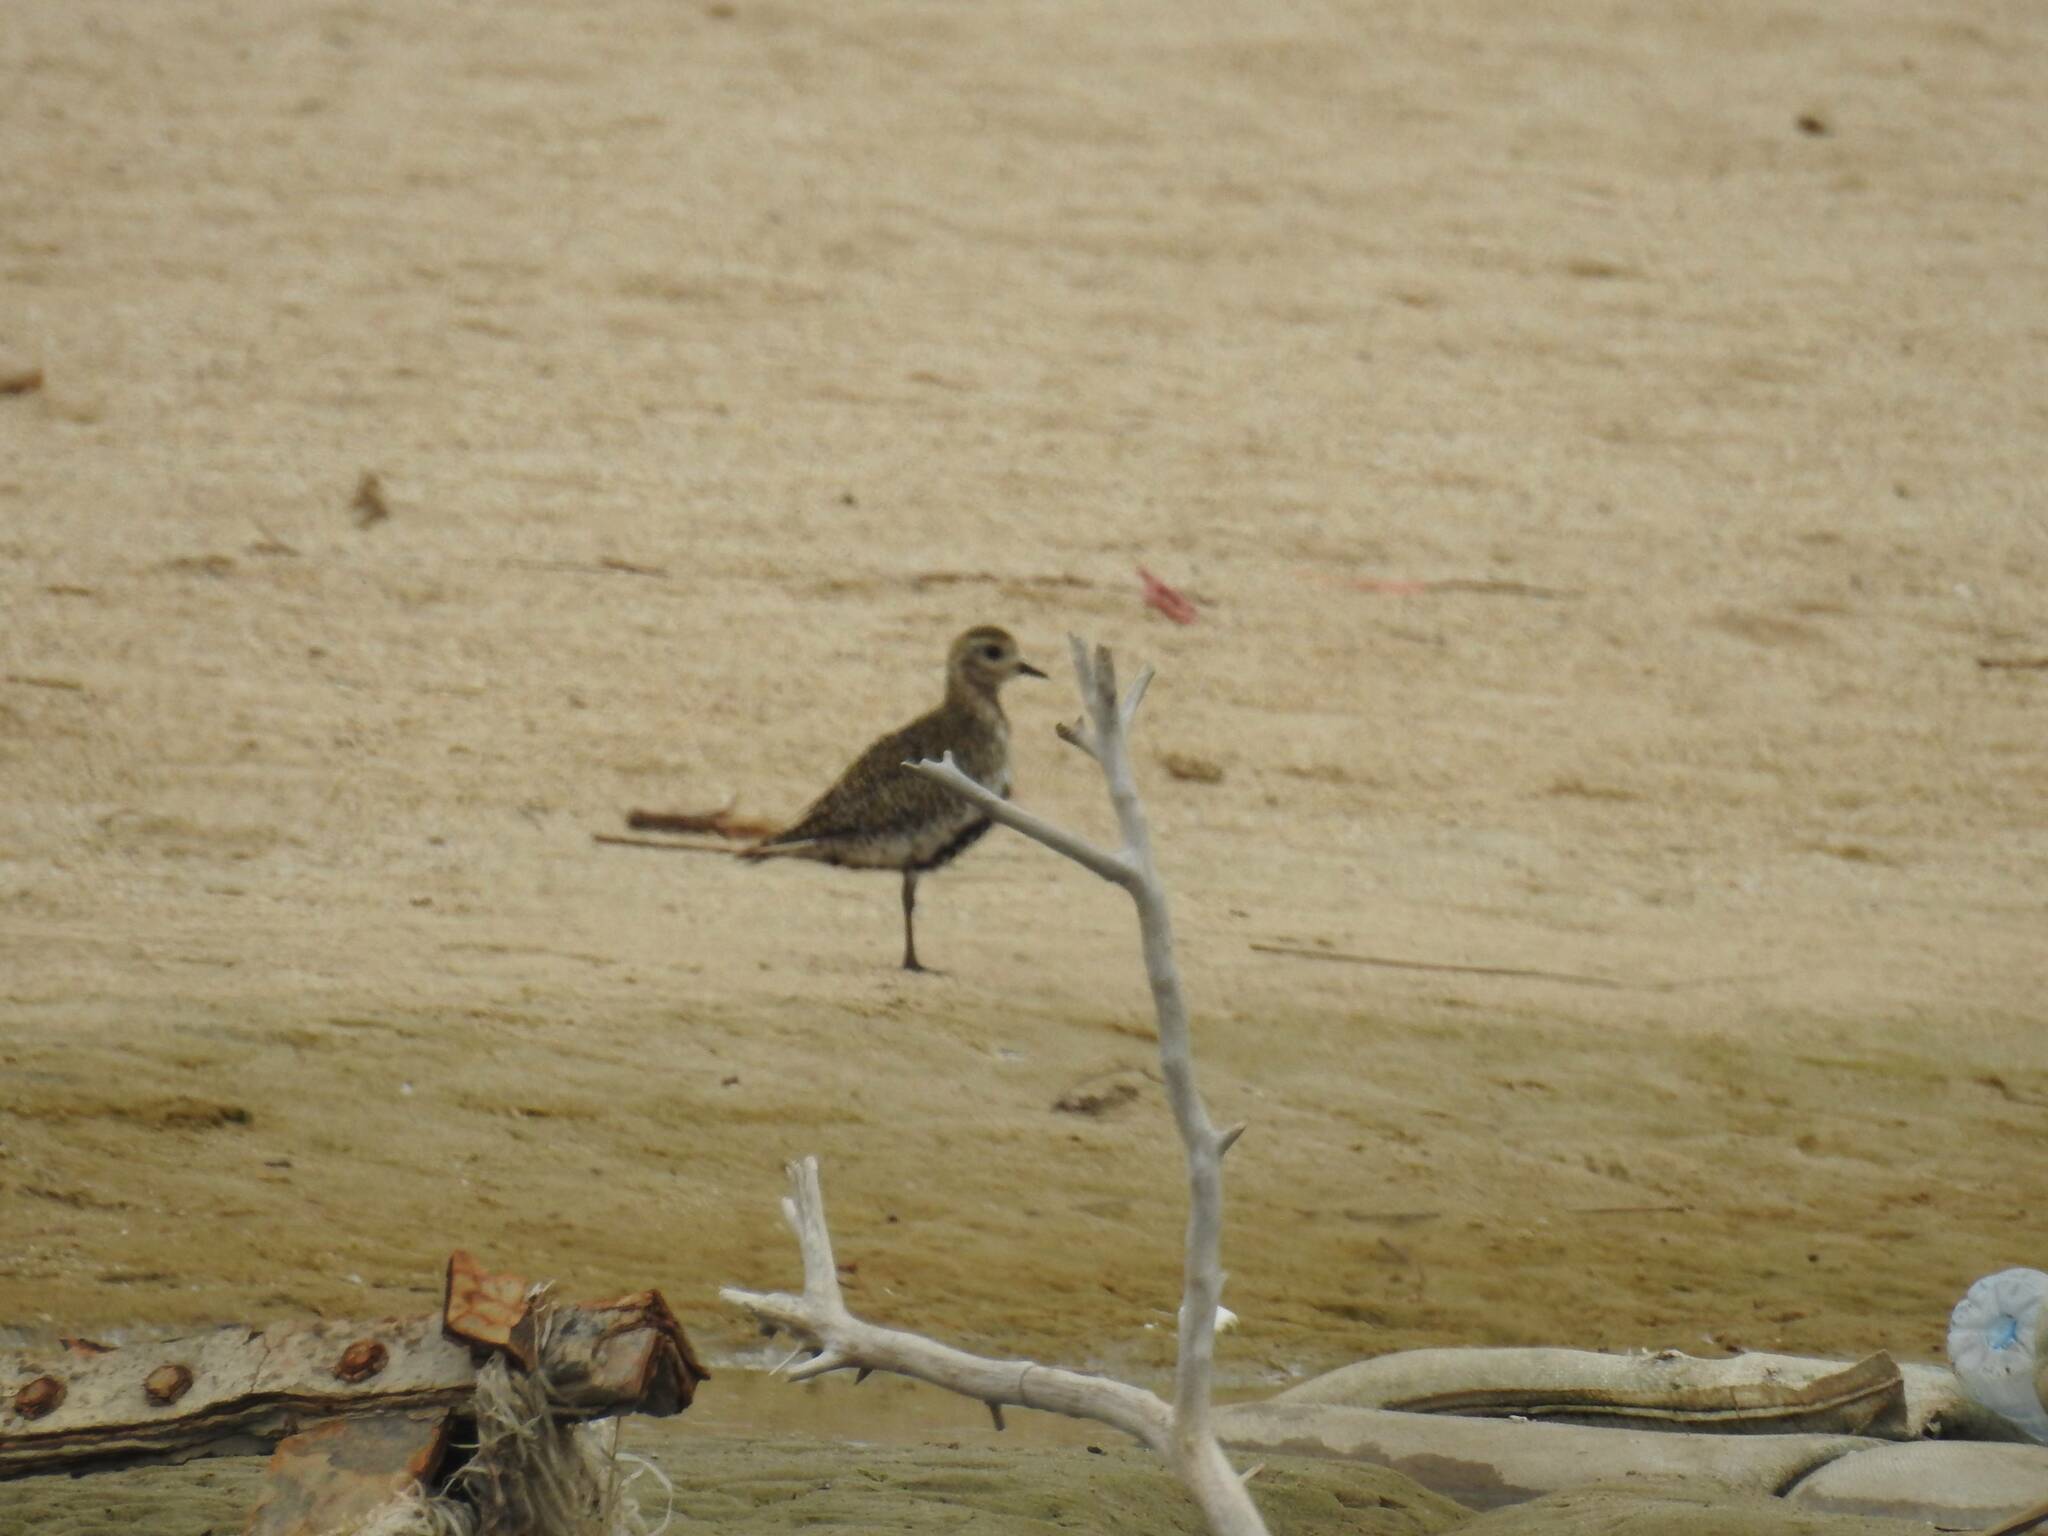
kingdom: Animalia
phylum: Chordata
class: Aves
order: Charadriiformes
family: Charadriidae
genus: Pluvialis
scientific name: Pluvialis apricaria
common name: European golden plover
